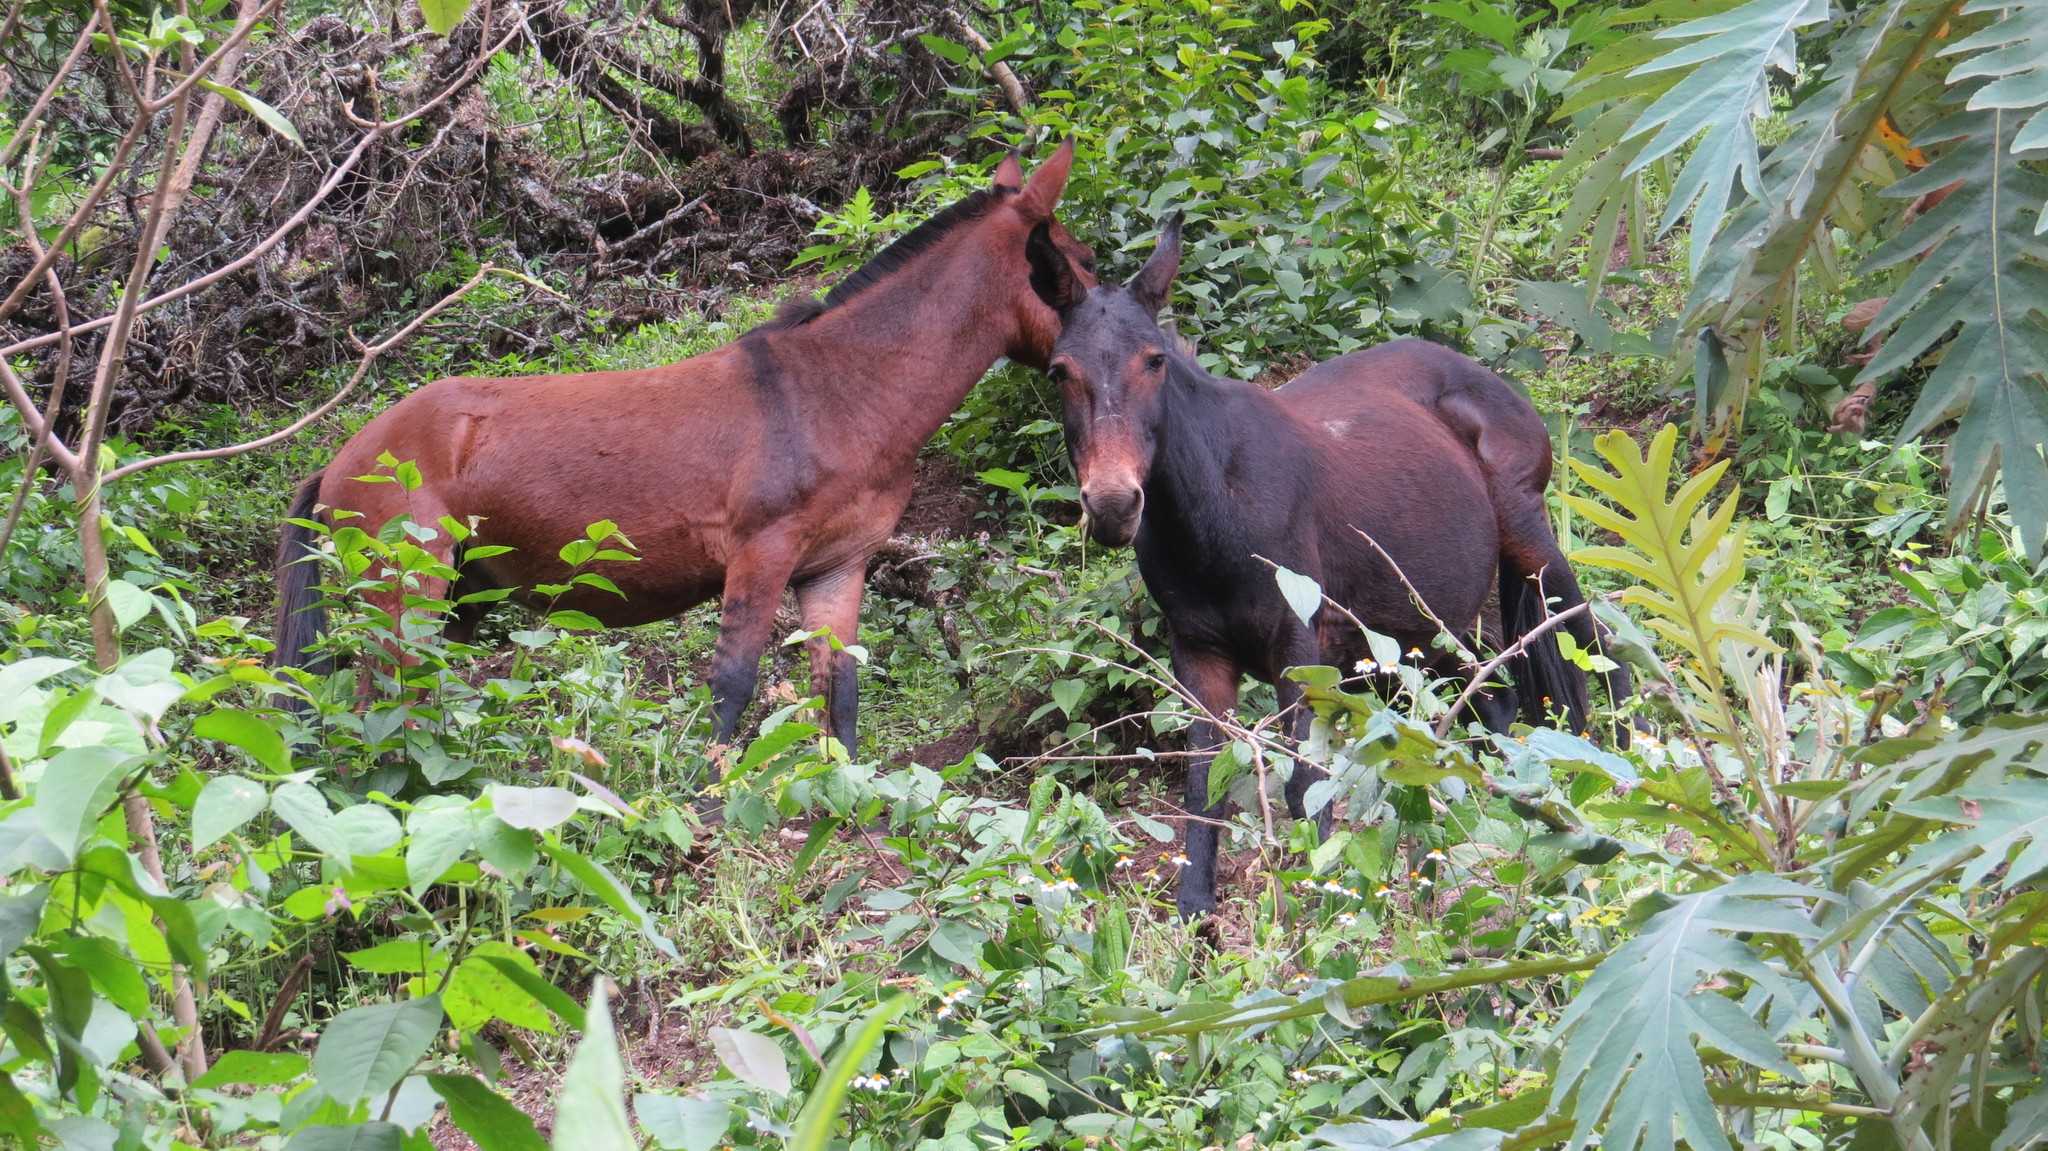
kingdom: Animalia
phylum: Chordata
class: Mammalia
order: Perissodactyla
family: Equidae
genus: Equus
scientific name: Equus caballus
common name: Horse
